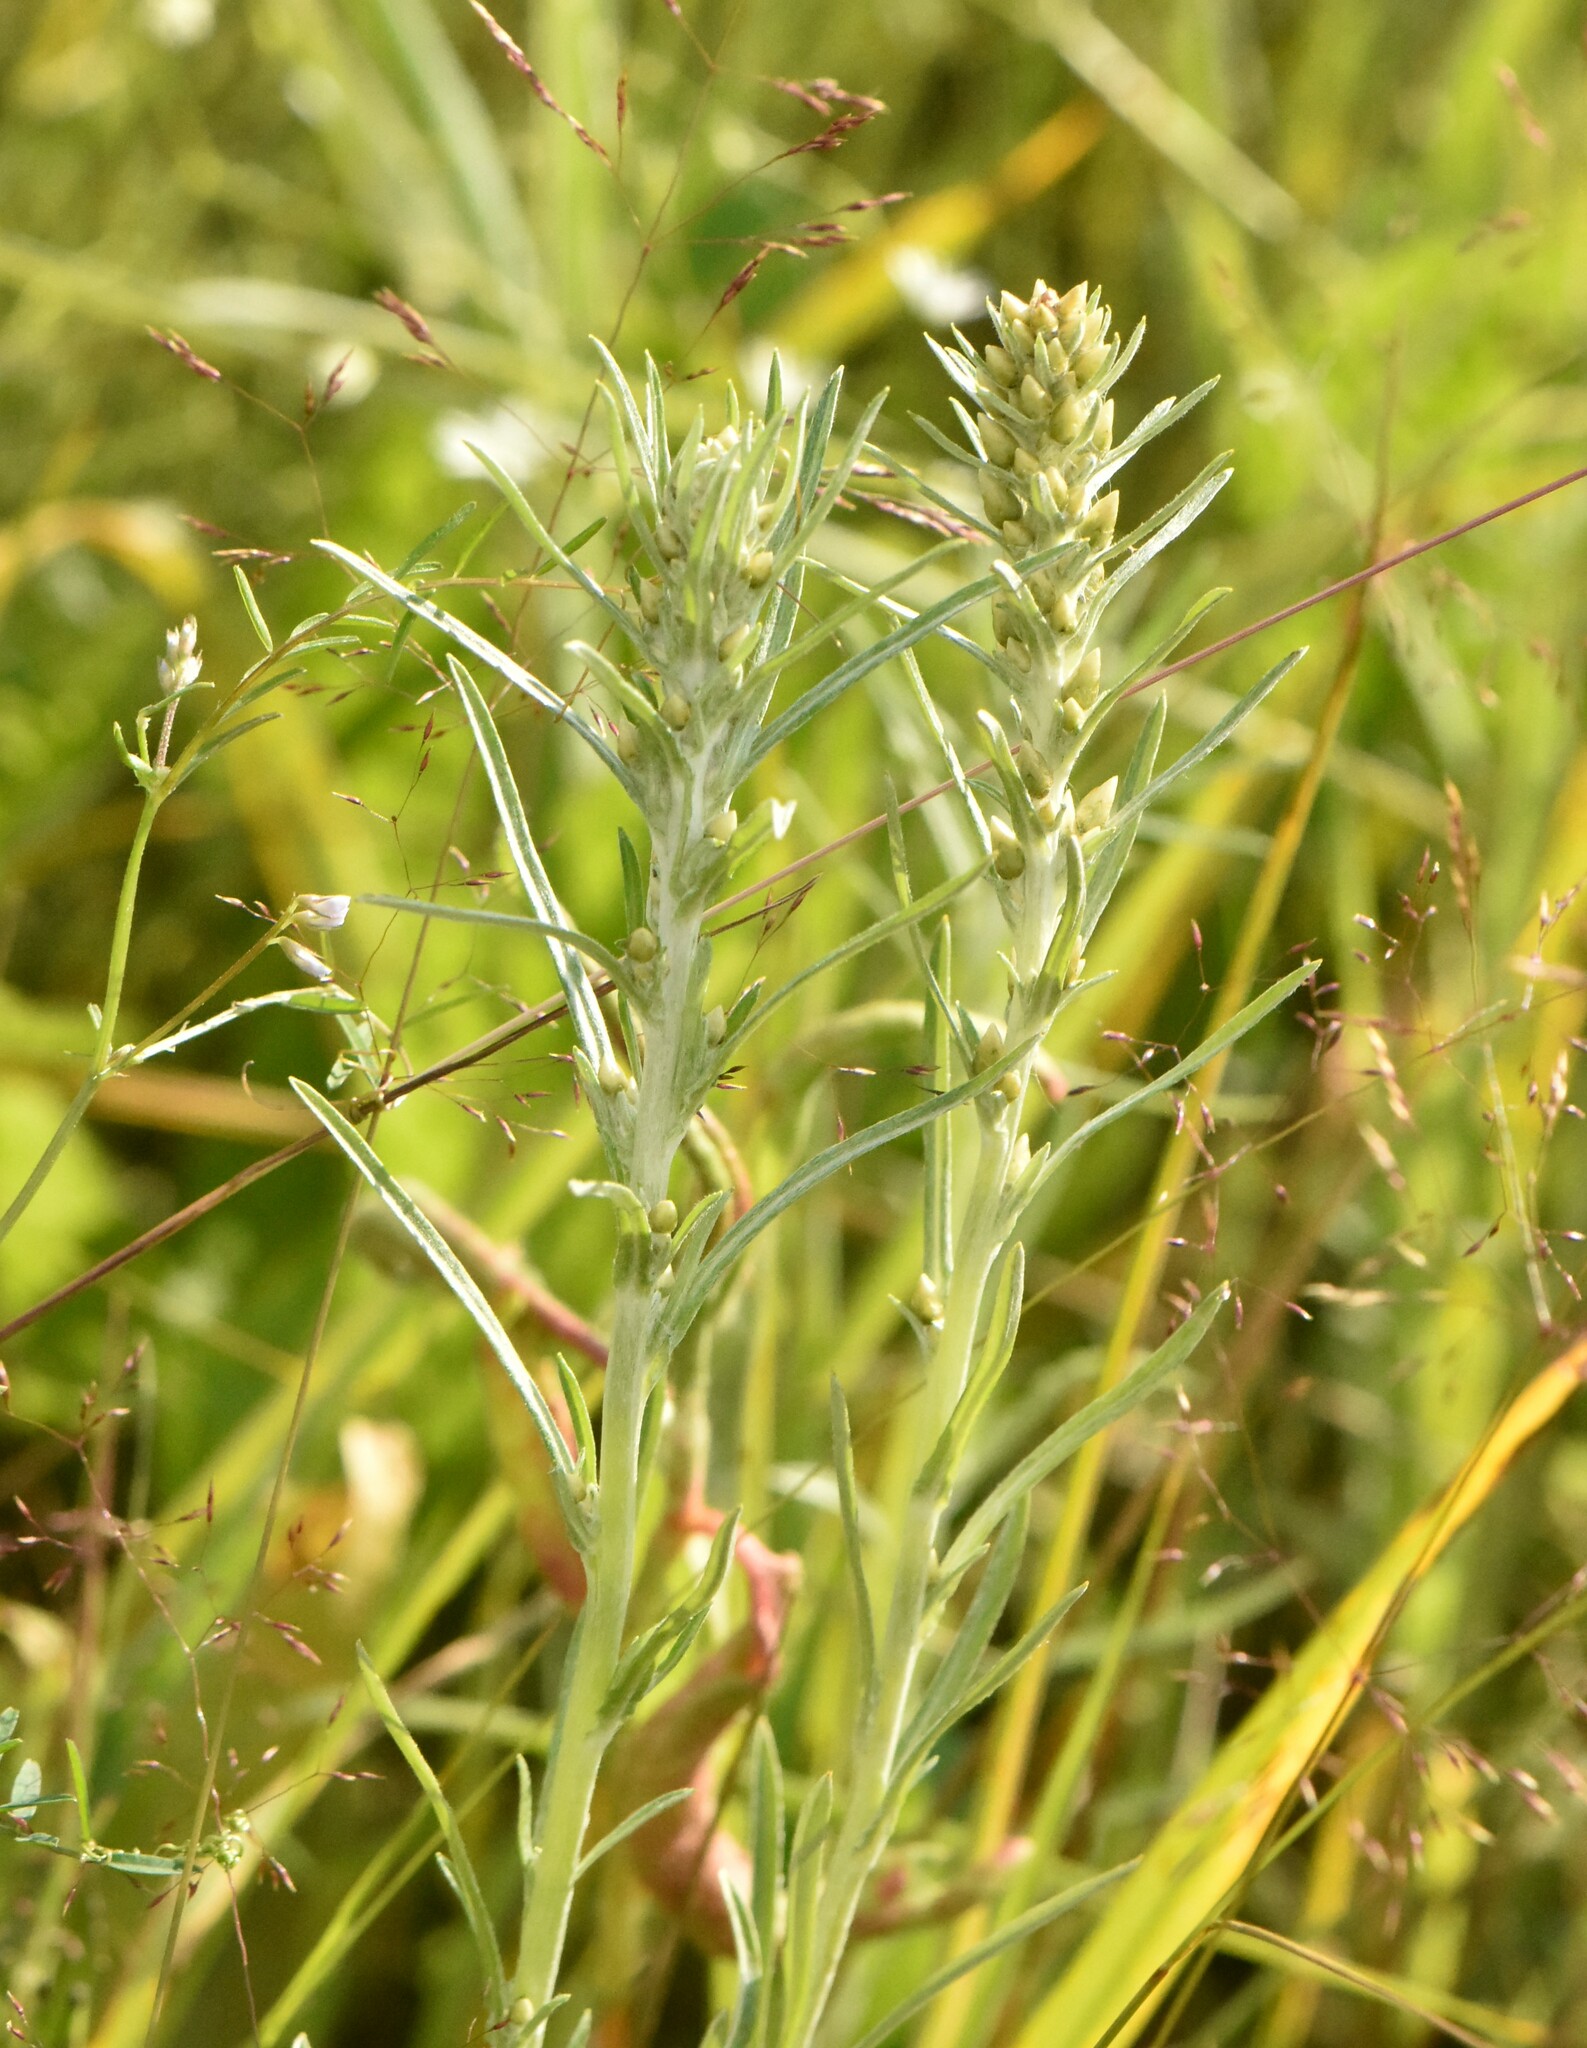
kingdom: Plantae
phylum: Tracheophyta
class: Magnoliopsida
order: Asterales
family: Asteraceae
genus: Omalotheca
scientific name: Omalotheca sylvatica
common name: Heath cudweed
